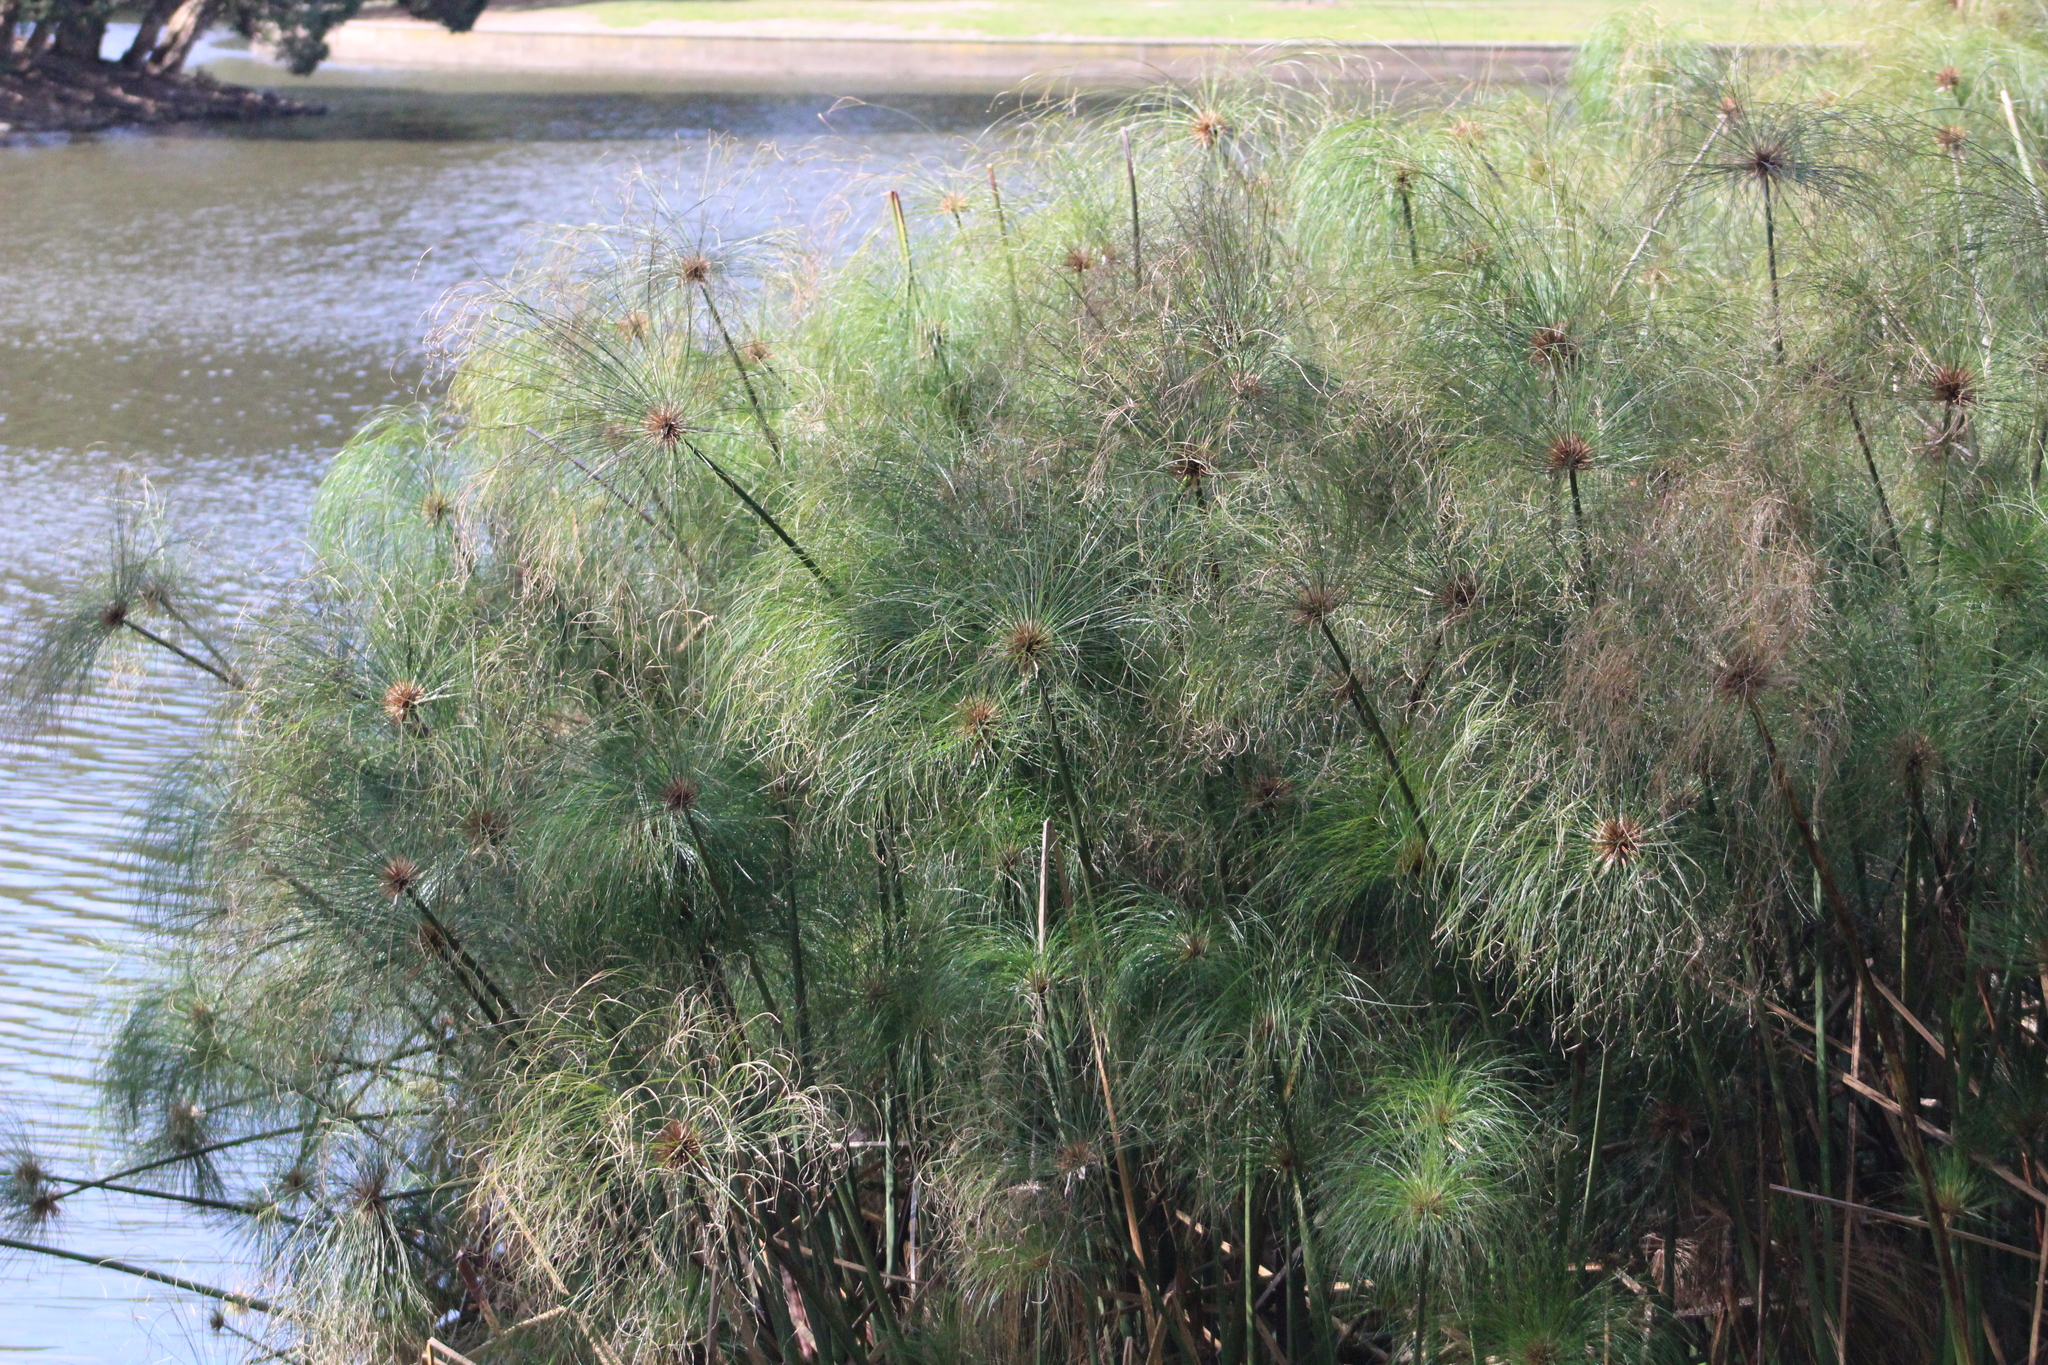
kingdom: Plantae
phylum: Tracheophyta
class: Liliopsida
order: Poales
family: Cyperaceae
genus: Cyperus
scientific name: Cyperus papyrus
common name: Papyrus
